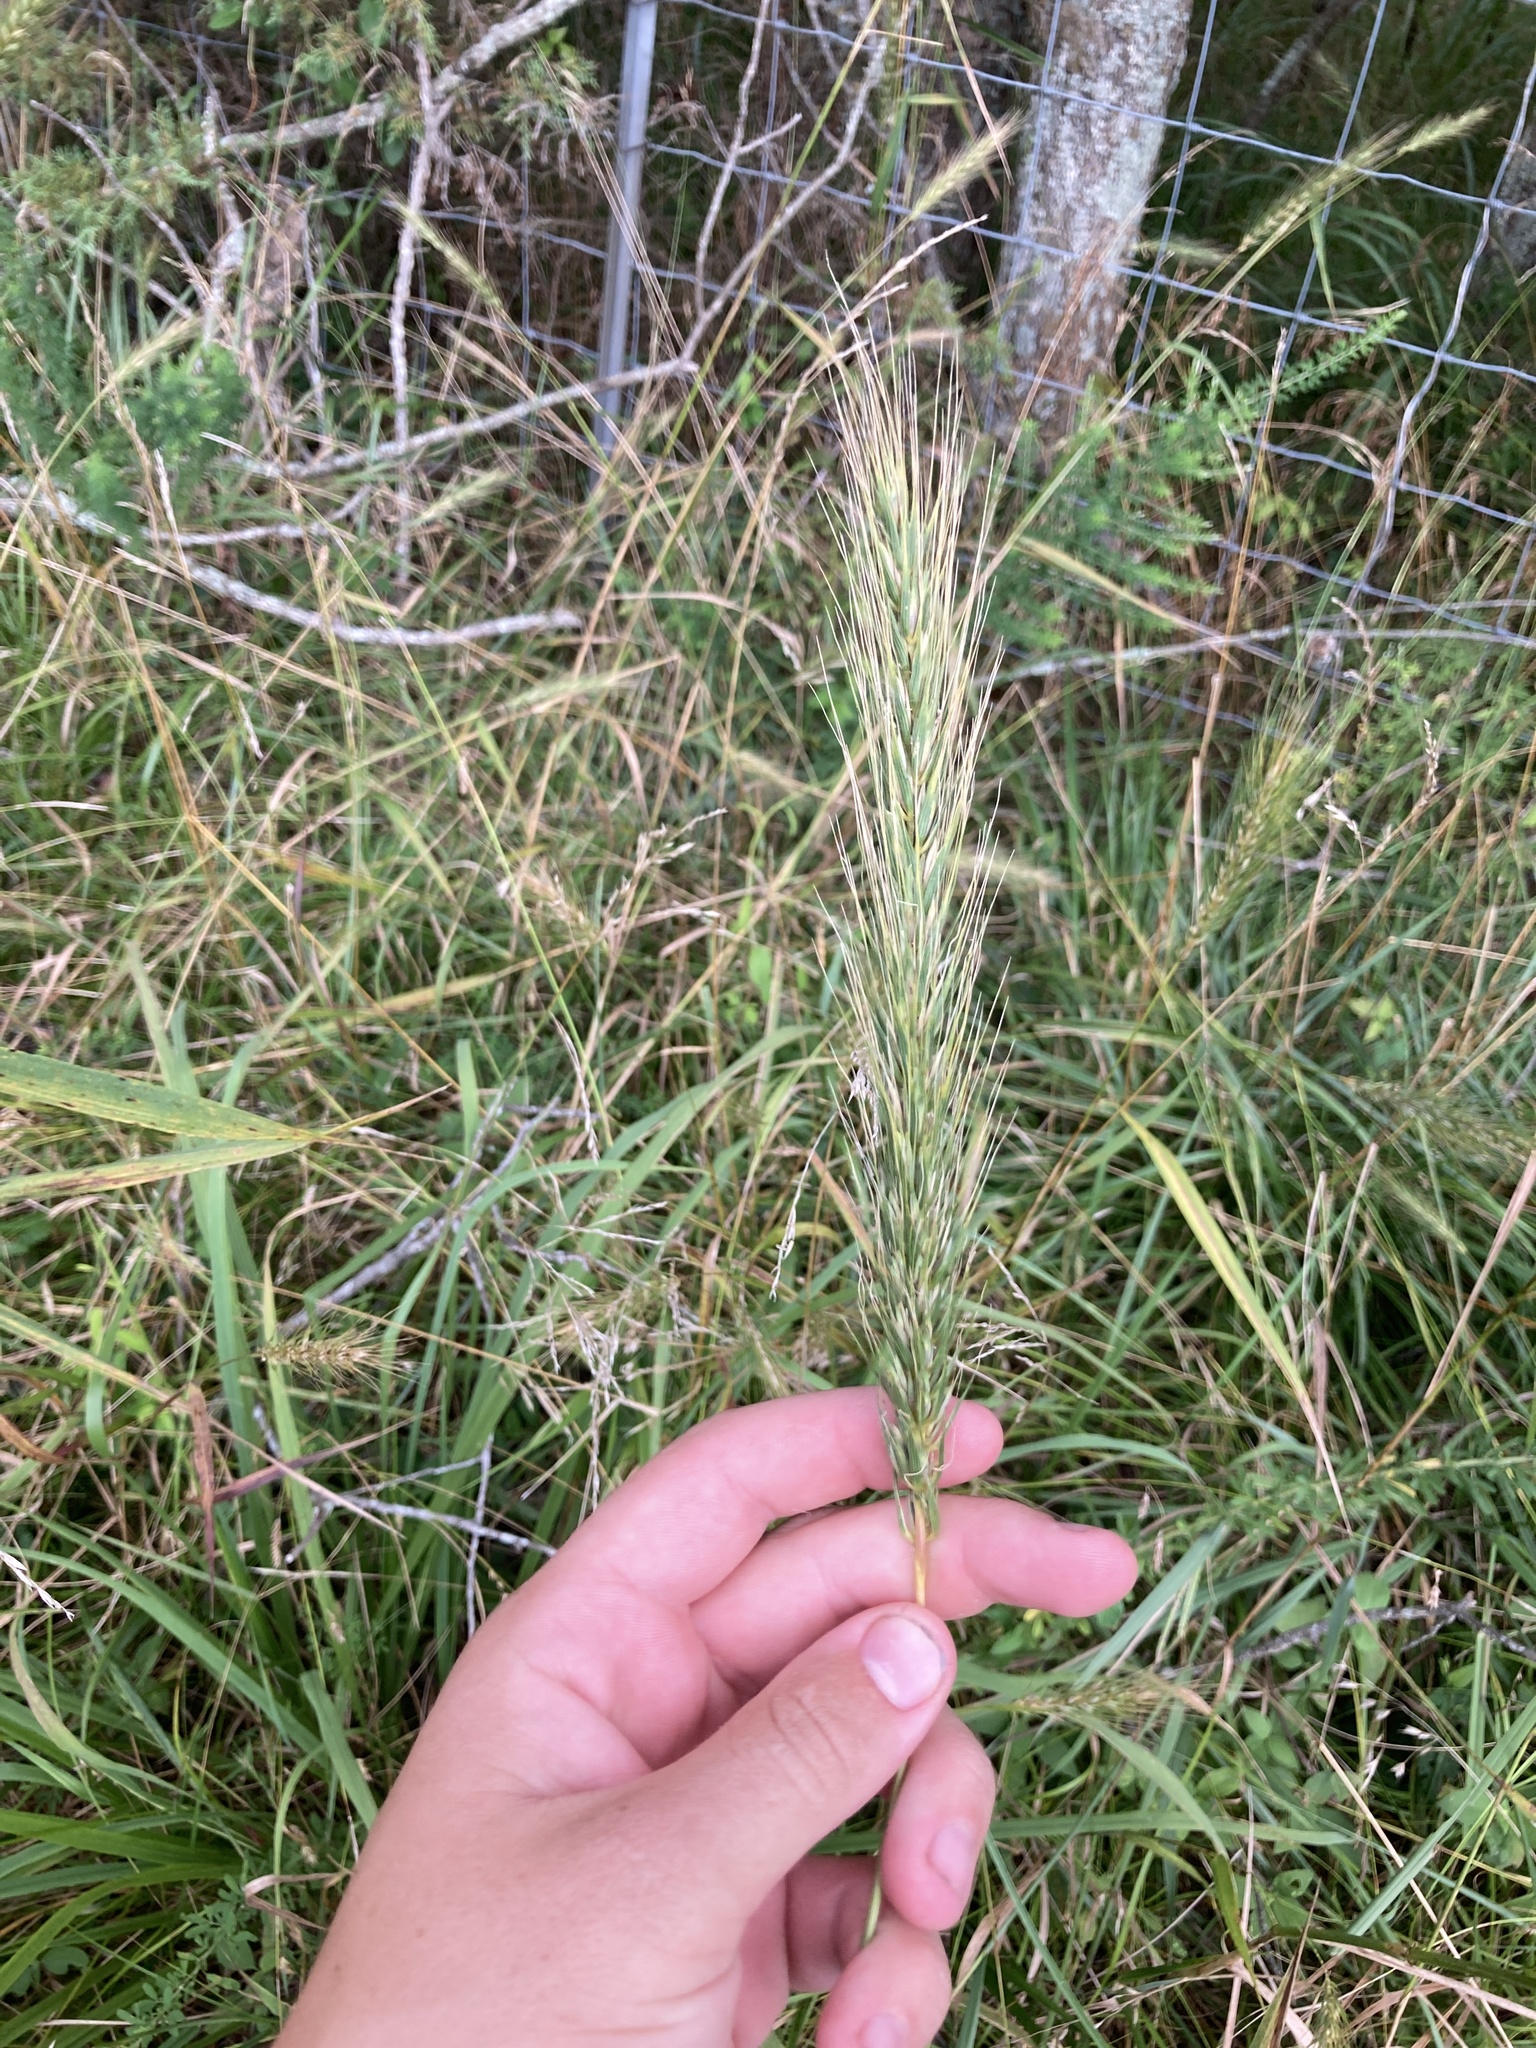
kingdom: Plantae
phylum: Tracheophyta
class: Liliopsida
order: Poales
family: Poaceae
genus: Elymus
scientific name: Elymus virginicus
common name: Common eastern wildrye
